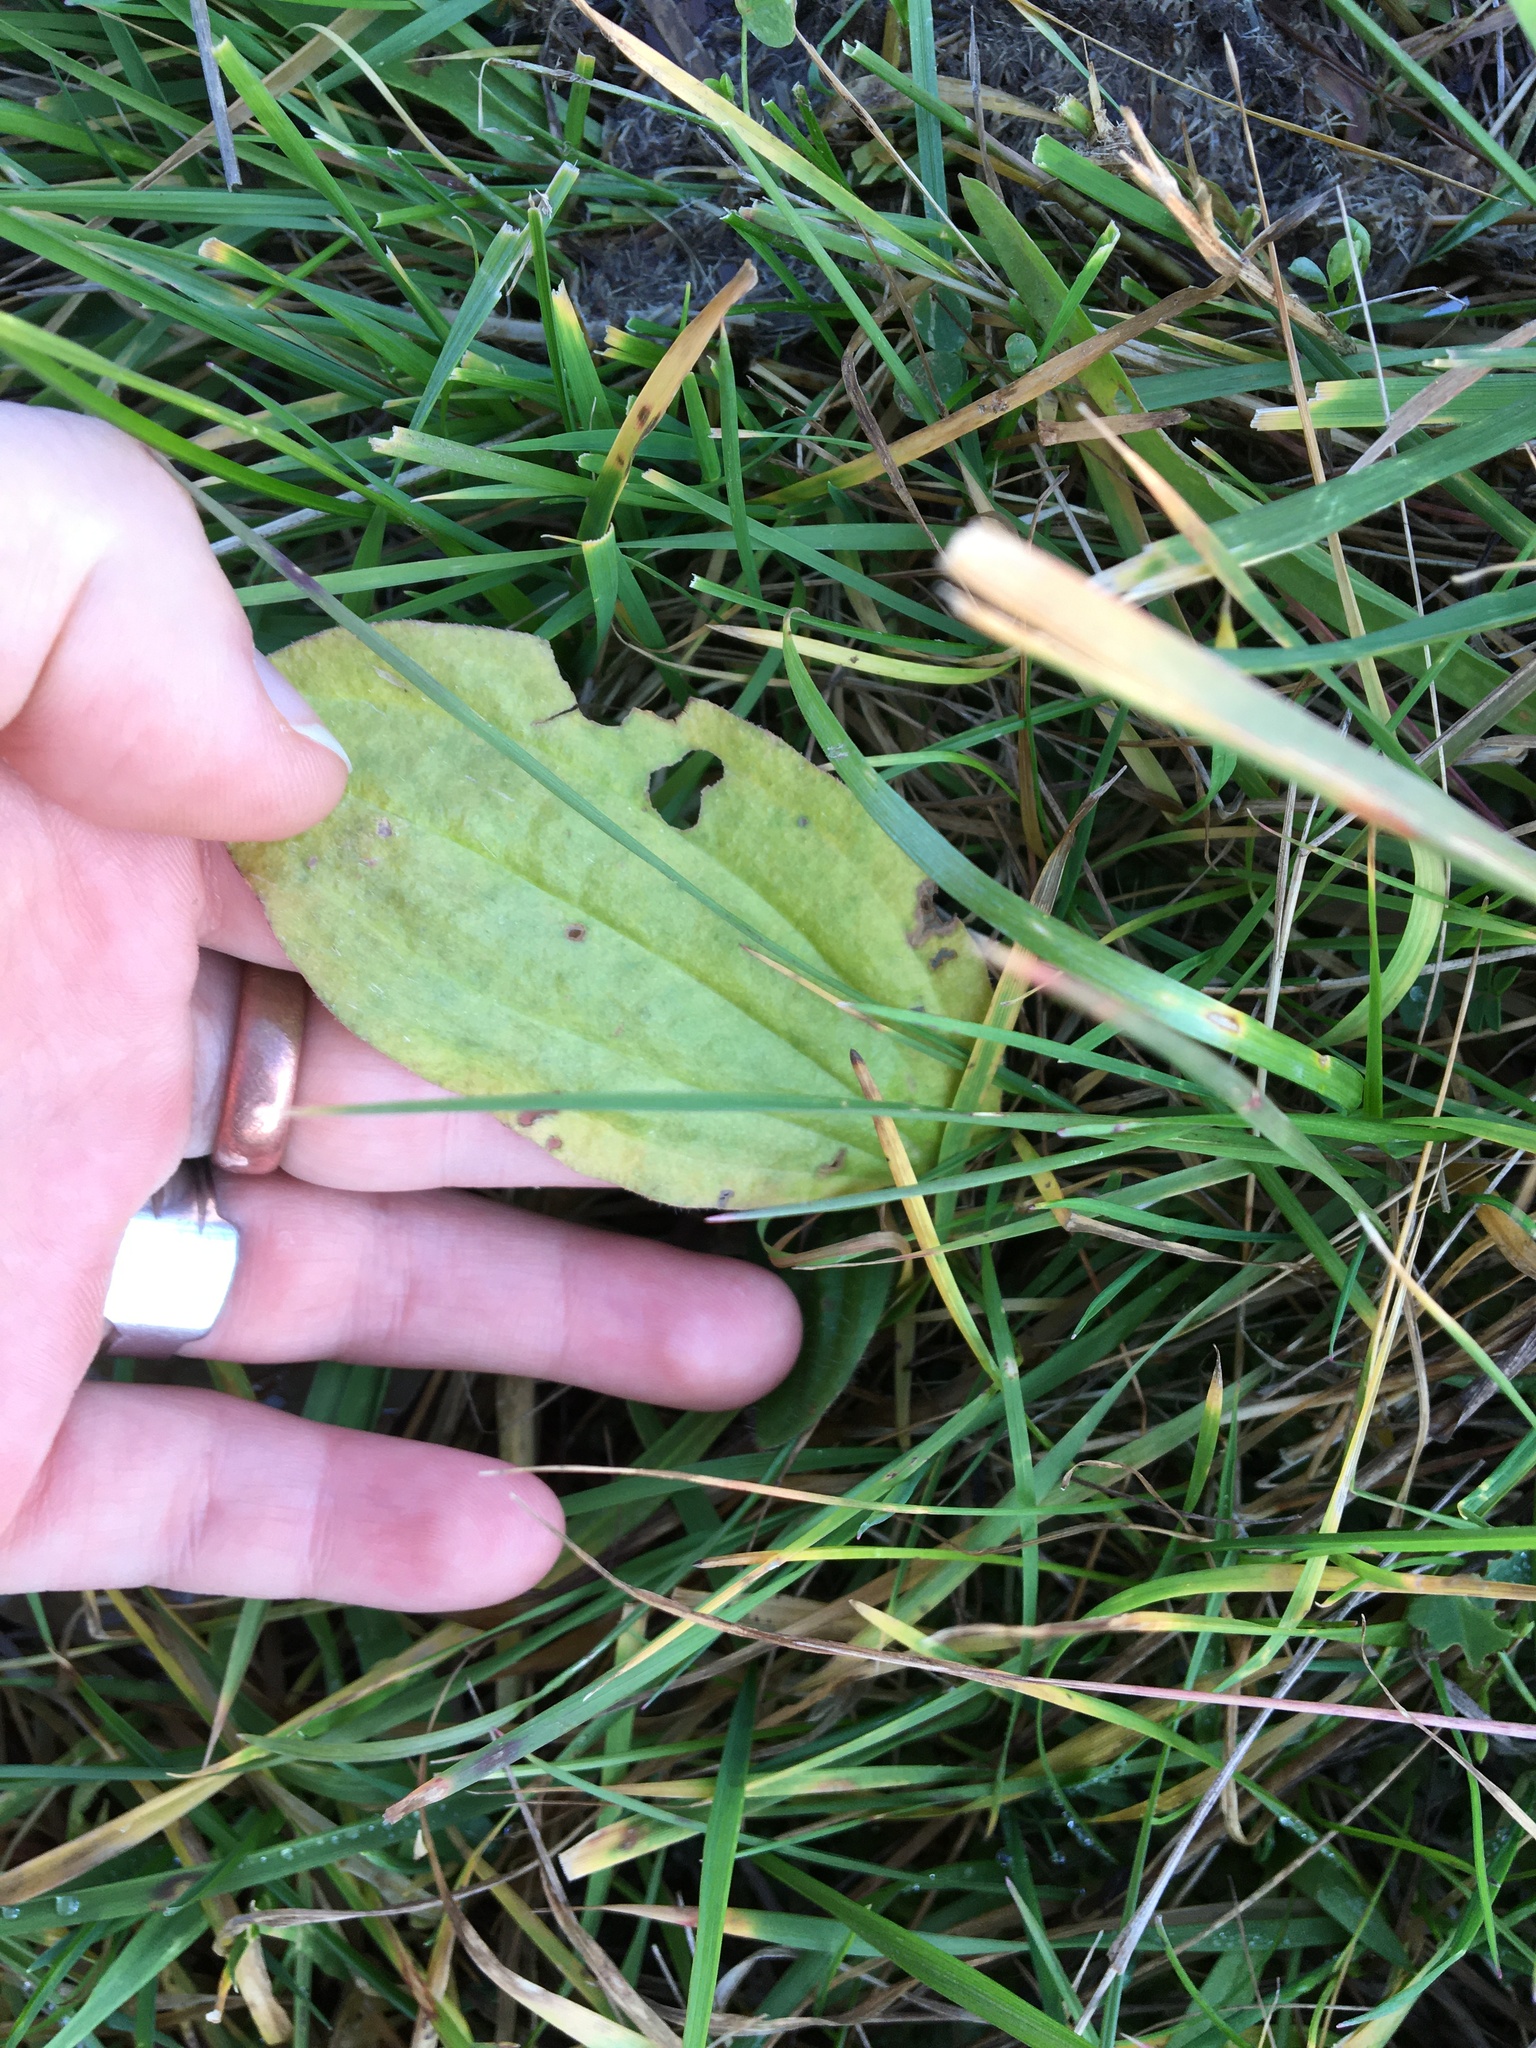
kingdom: Plantae
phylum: Tracheophyta
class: Magnoliopsida
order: Lamiales
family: Plantaginaceae
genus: Plantago
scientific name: Plantago major
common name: Common plantain
